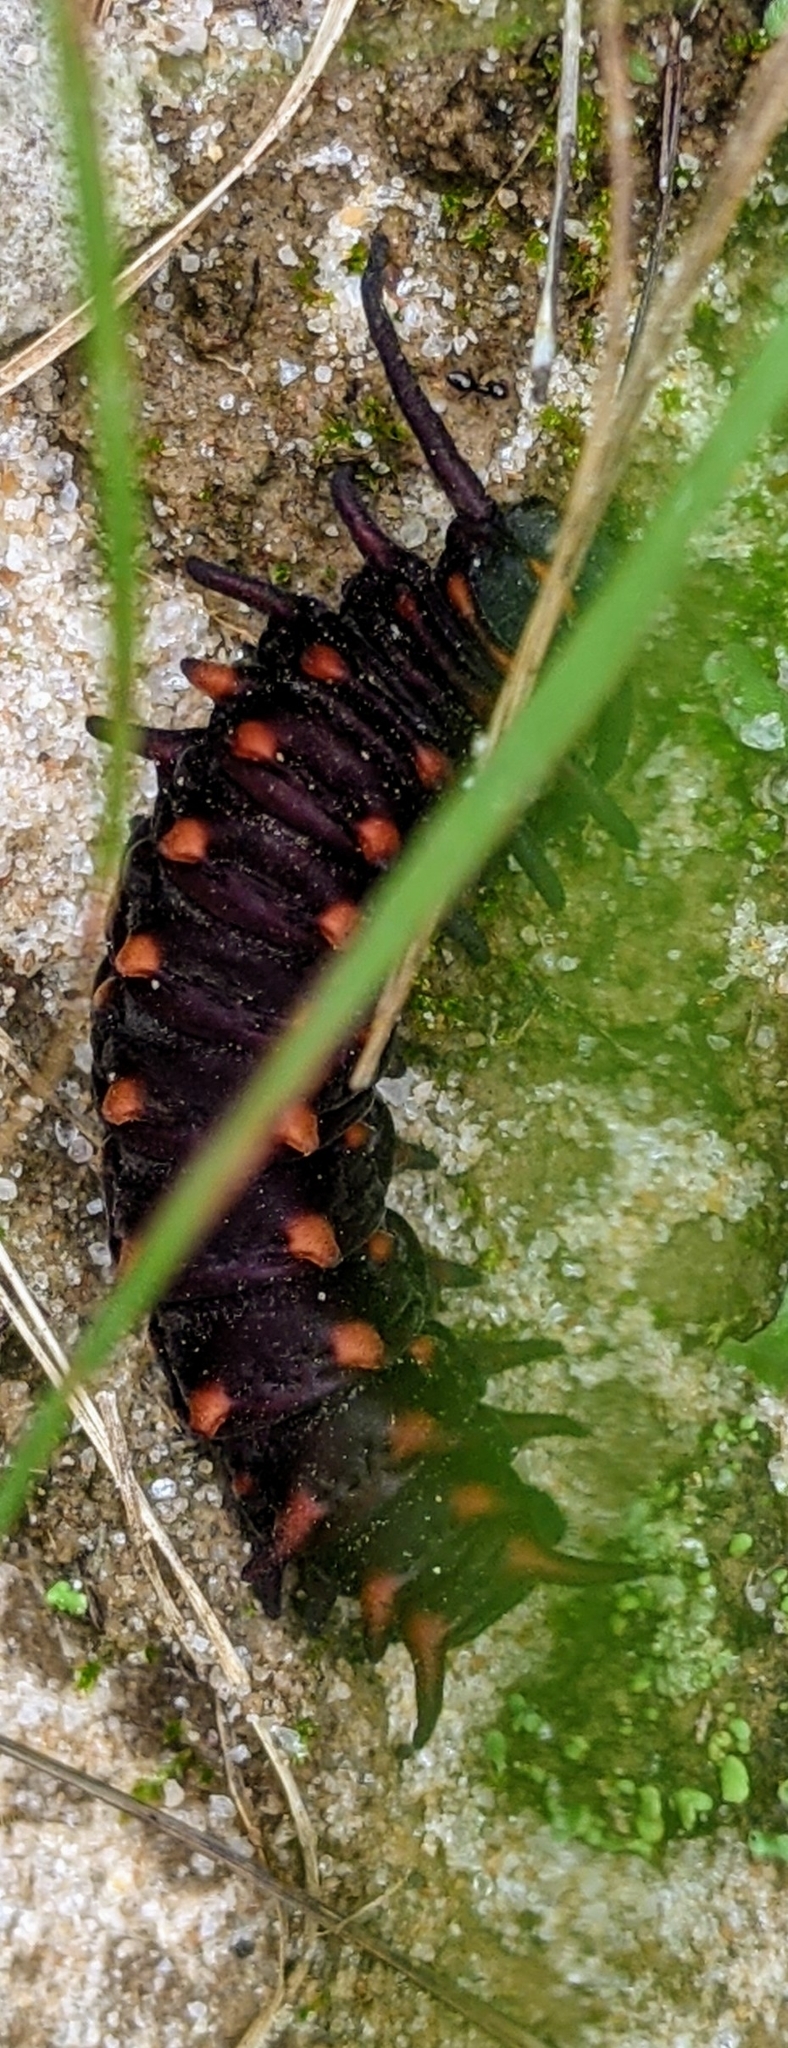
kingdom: Animalia
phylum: Arthropoda
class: Insecta
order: Lepidoptera
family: Papilionidae
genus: Battus
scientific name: Battus philenor
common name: Pipevine swallowtail
